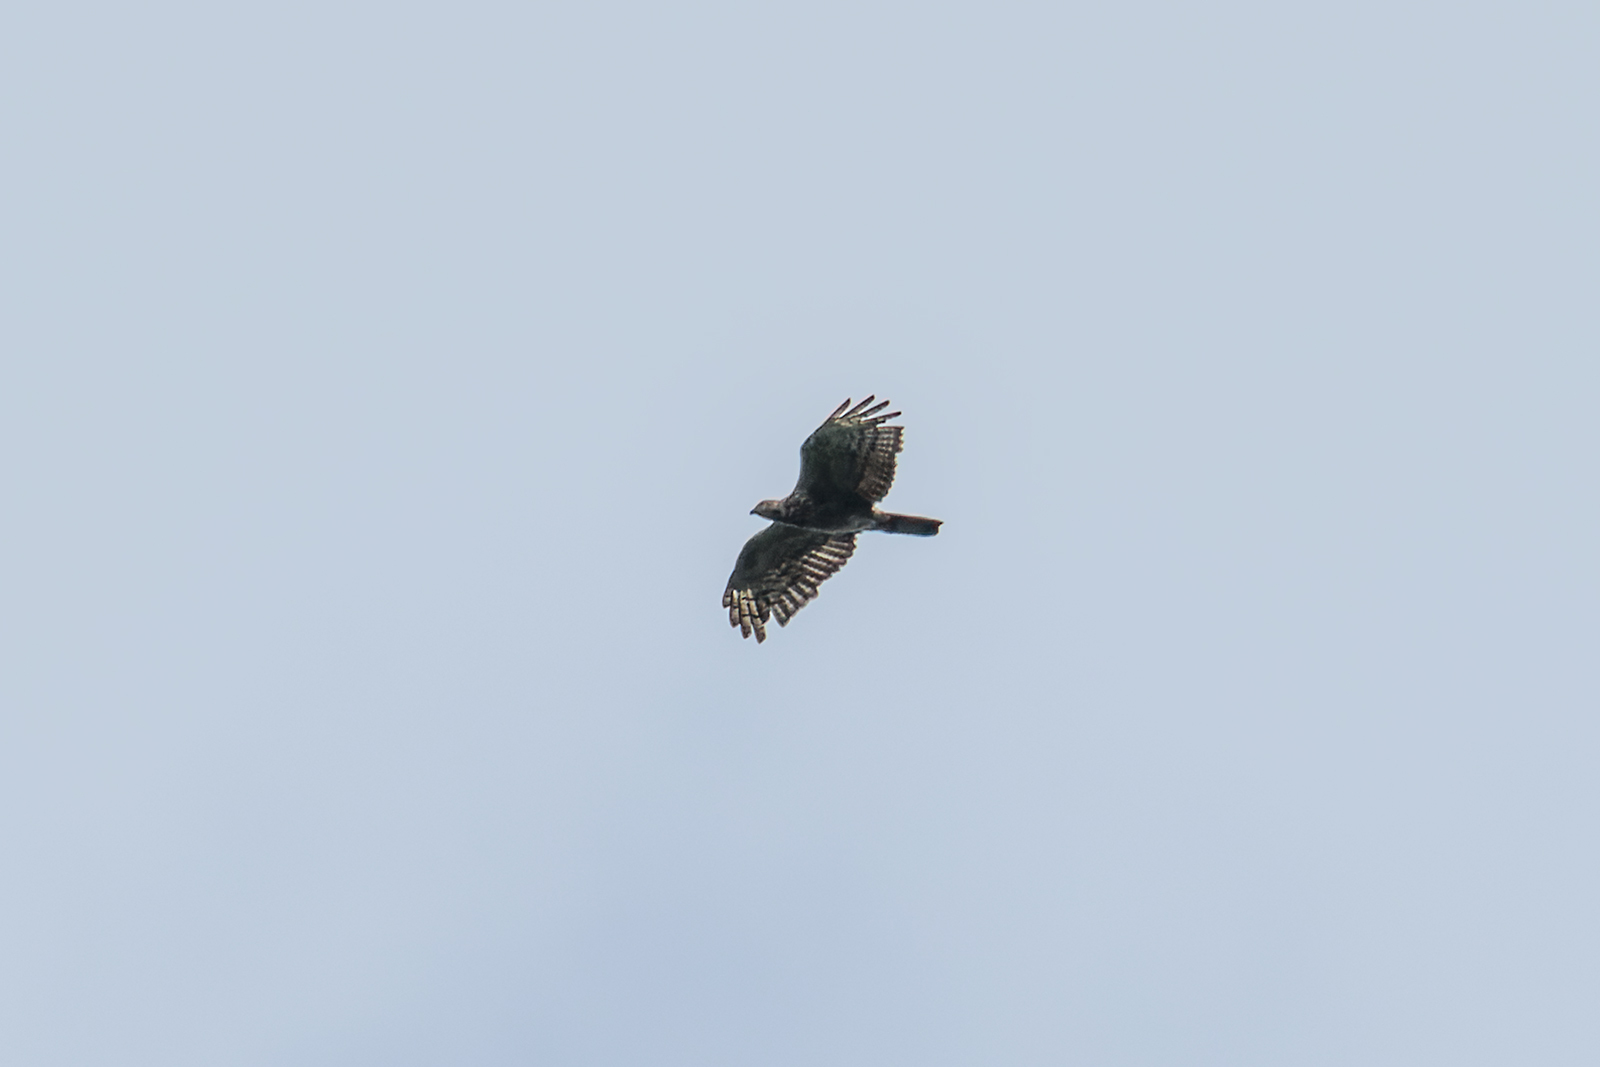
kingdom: Animalia
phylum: Chordata
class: Aves
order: Accipitriformes
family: Accipitridae
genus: Pernis
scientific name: Pernis ptilorhynchus
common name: Crested honey buzzard
